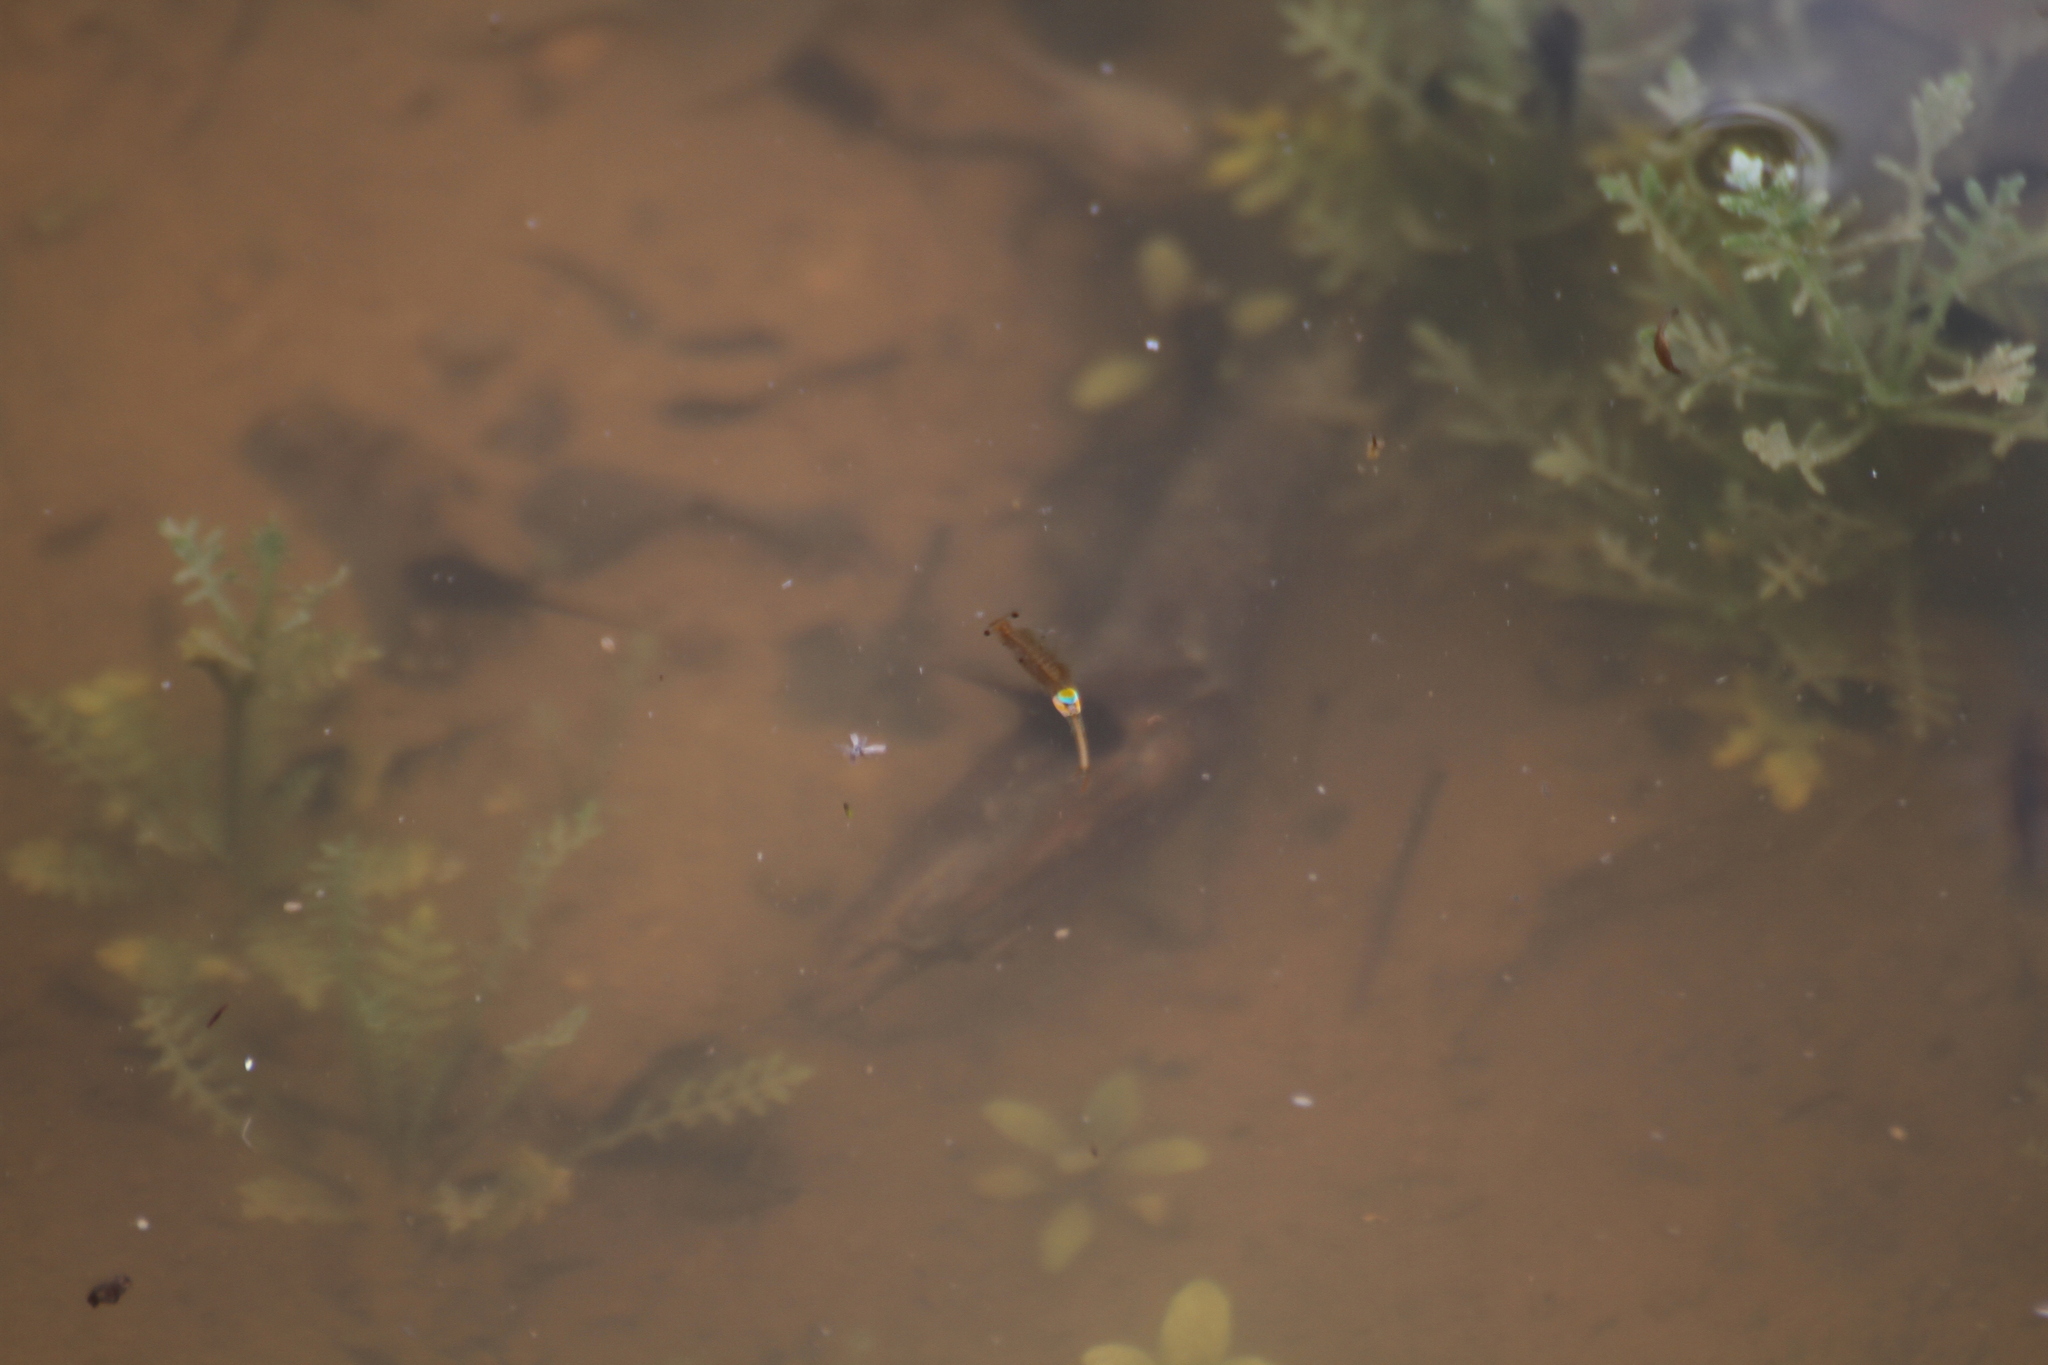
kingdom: Animalia
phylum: Arthropoda
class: Branchiopoda
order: Anostraca
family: Branchipodidae
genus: Branchipus
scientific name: Branchipus schaefferi
